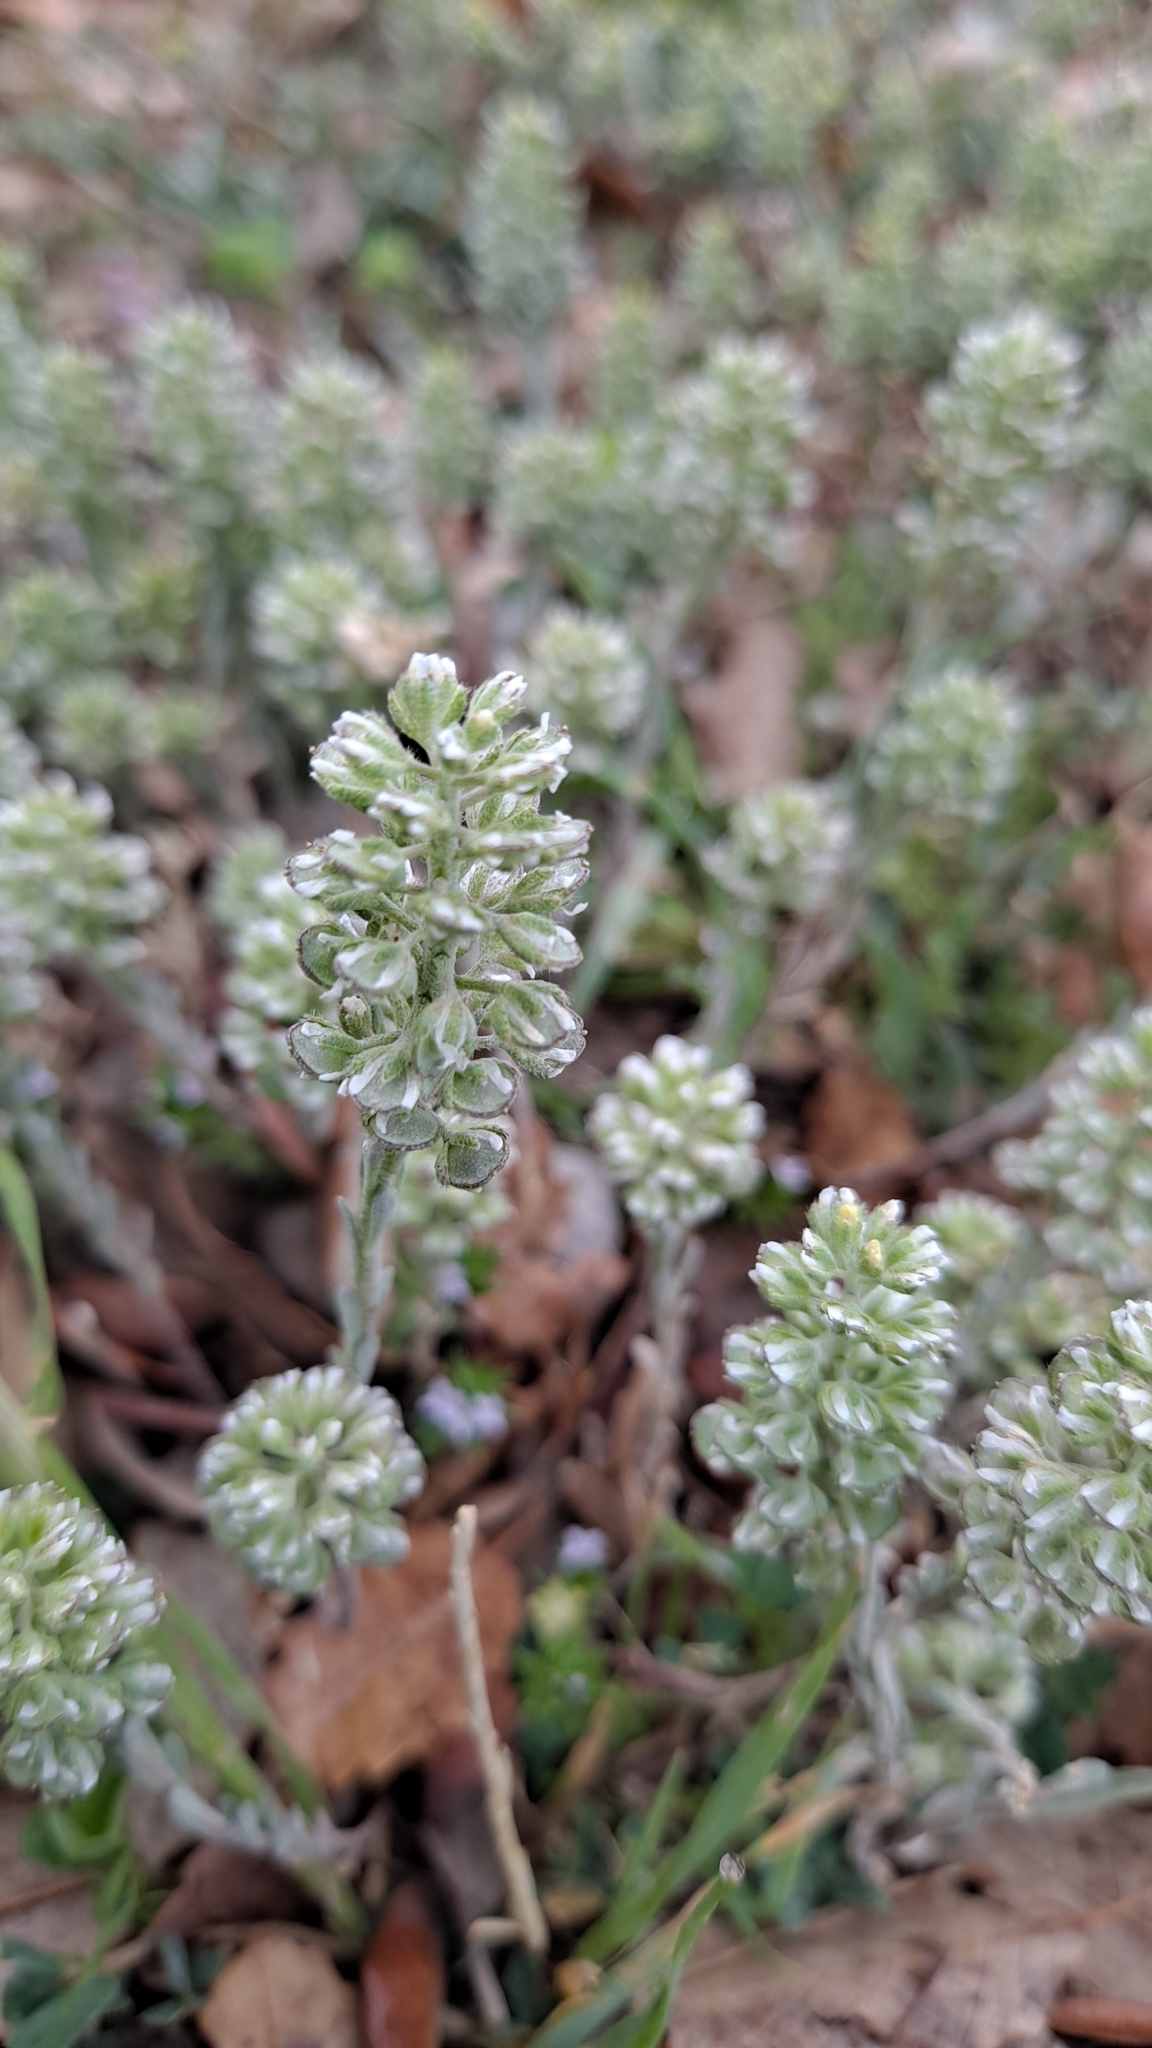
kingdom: Plantae
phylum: Tracheophyta
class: Magnoliopsida
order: Brassicales
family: Brassicaceae
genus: Alyssum
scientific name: Alyssum alyssoides
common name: Small alison
